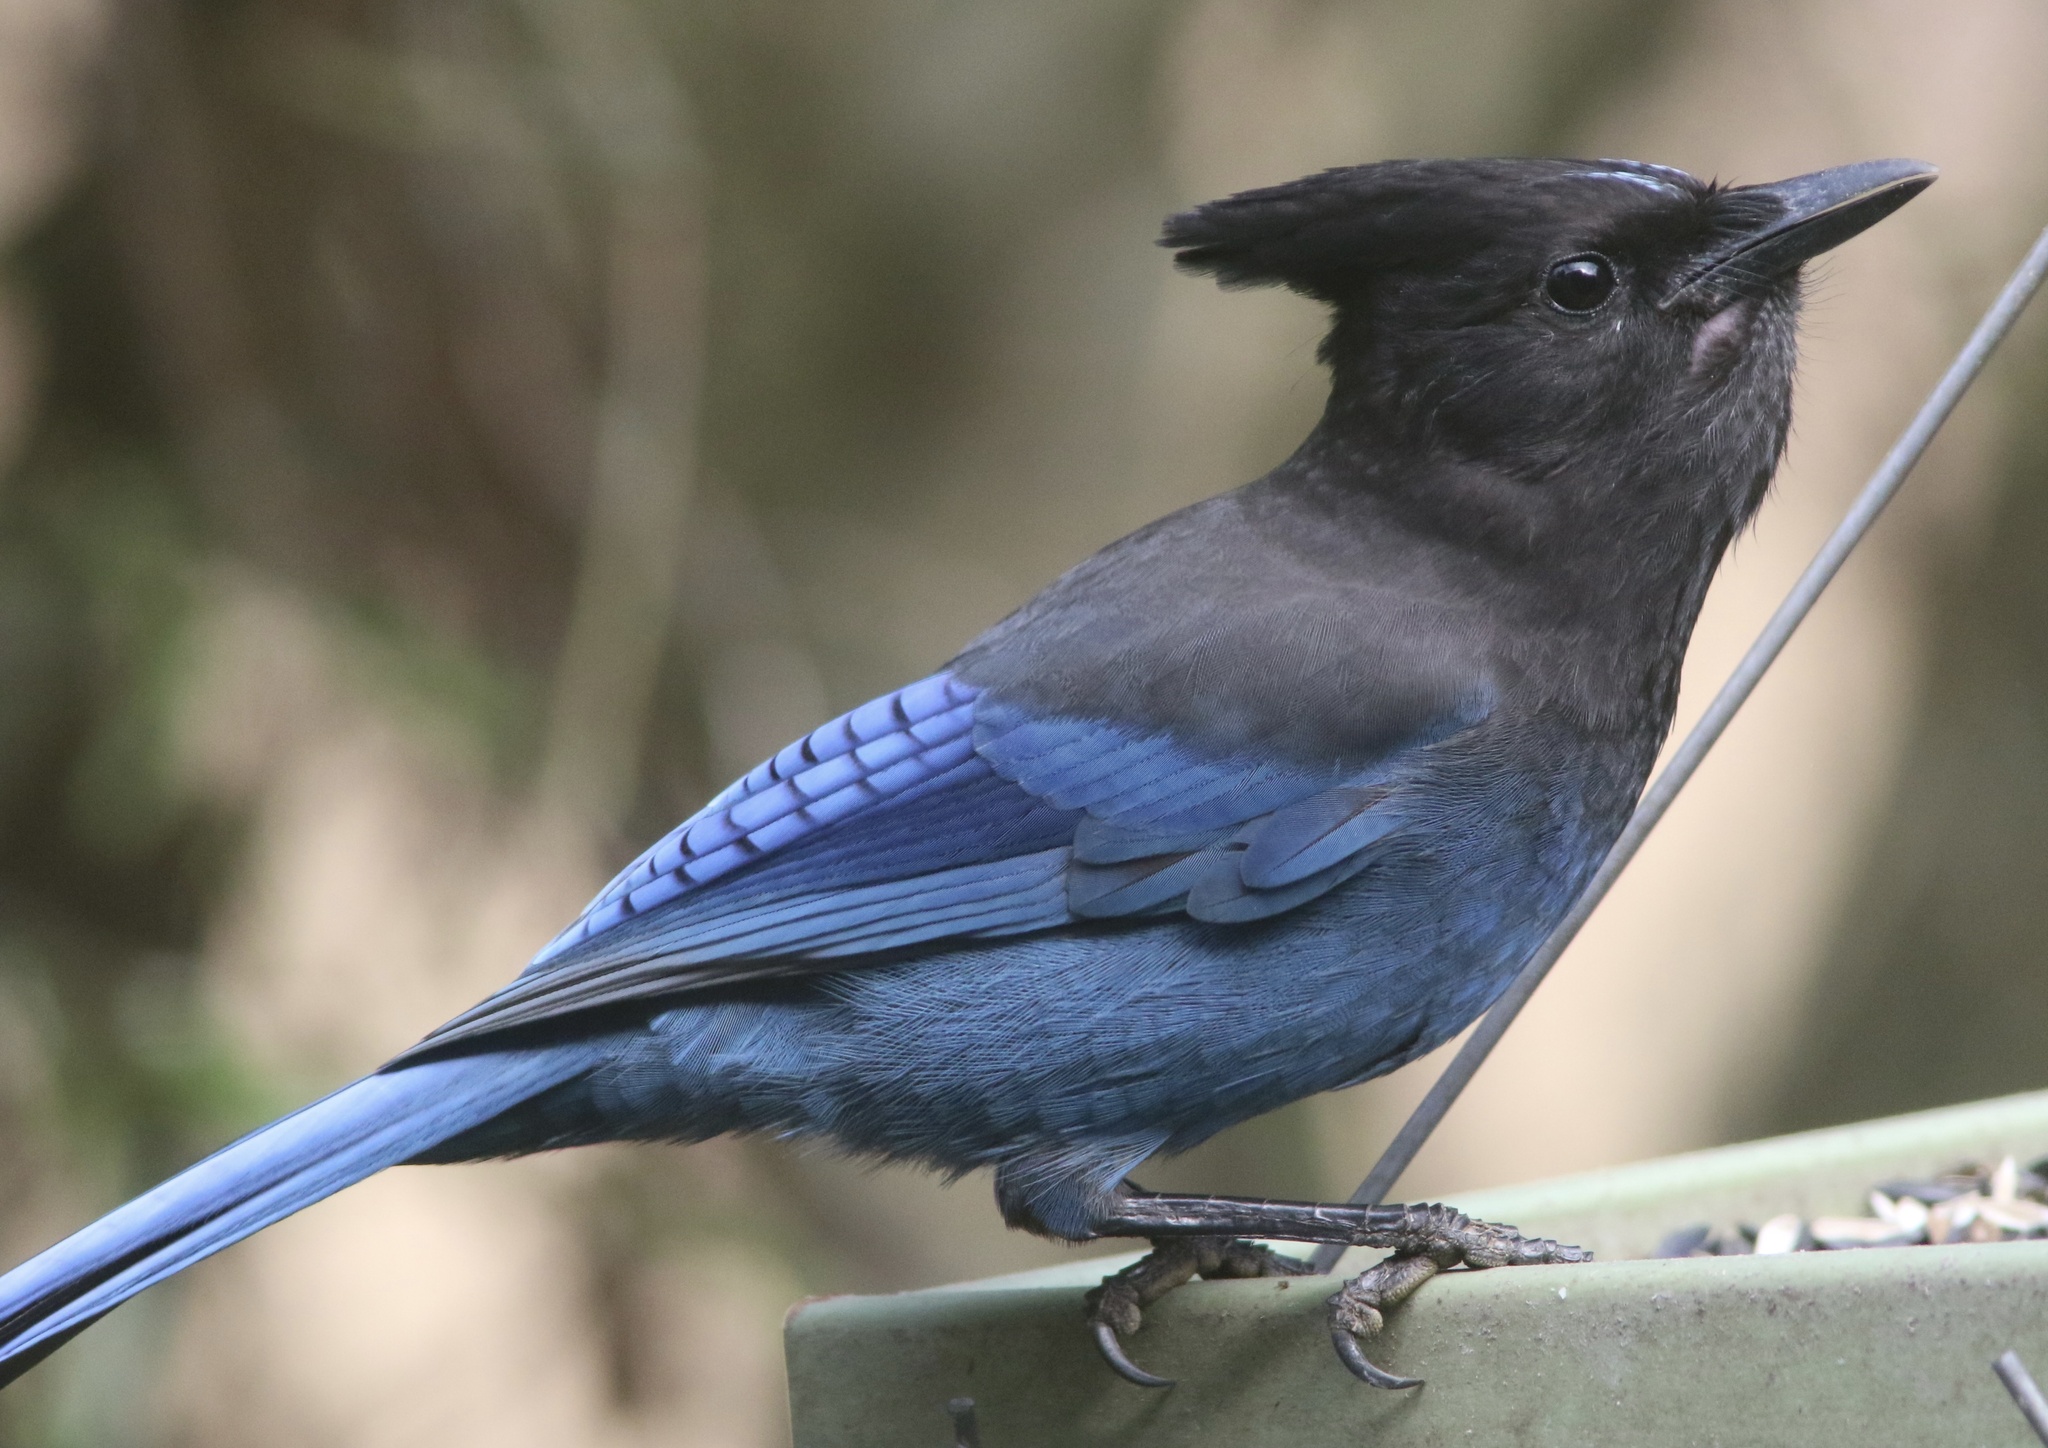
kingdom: Animalia
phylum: Chordata
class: Aves
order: Passeriformes
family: Corvidae
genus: Cyanocitta
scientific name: Cyanocitta stelleri
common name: Steller's jay
